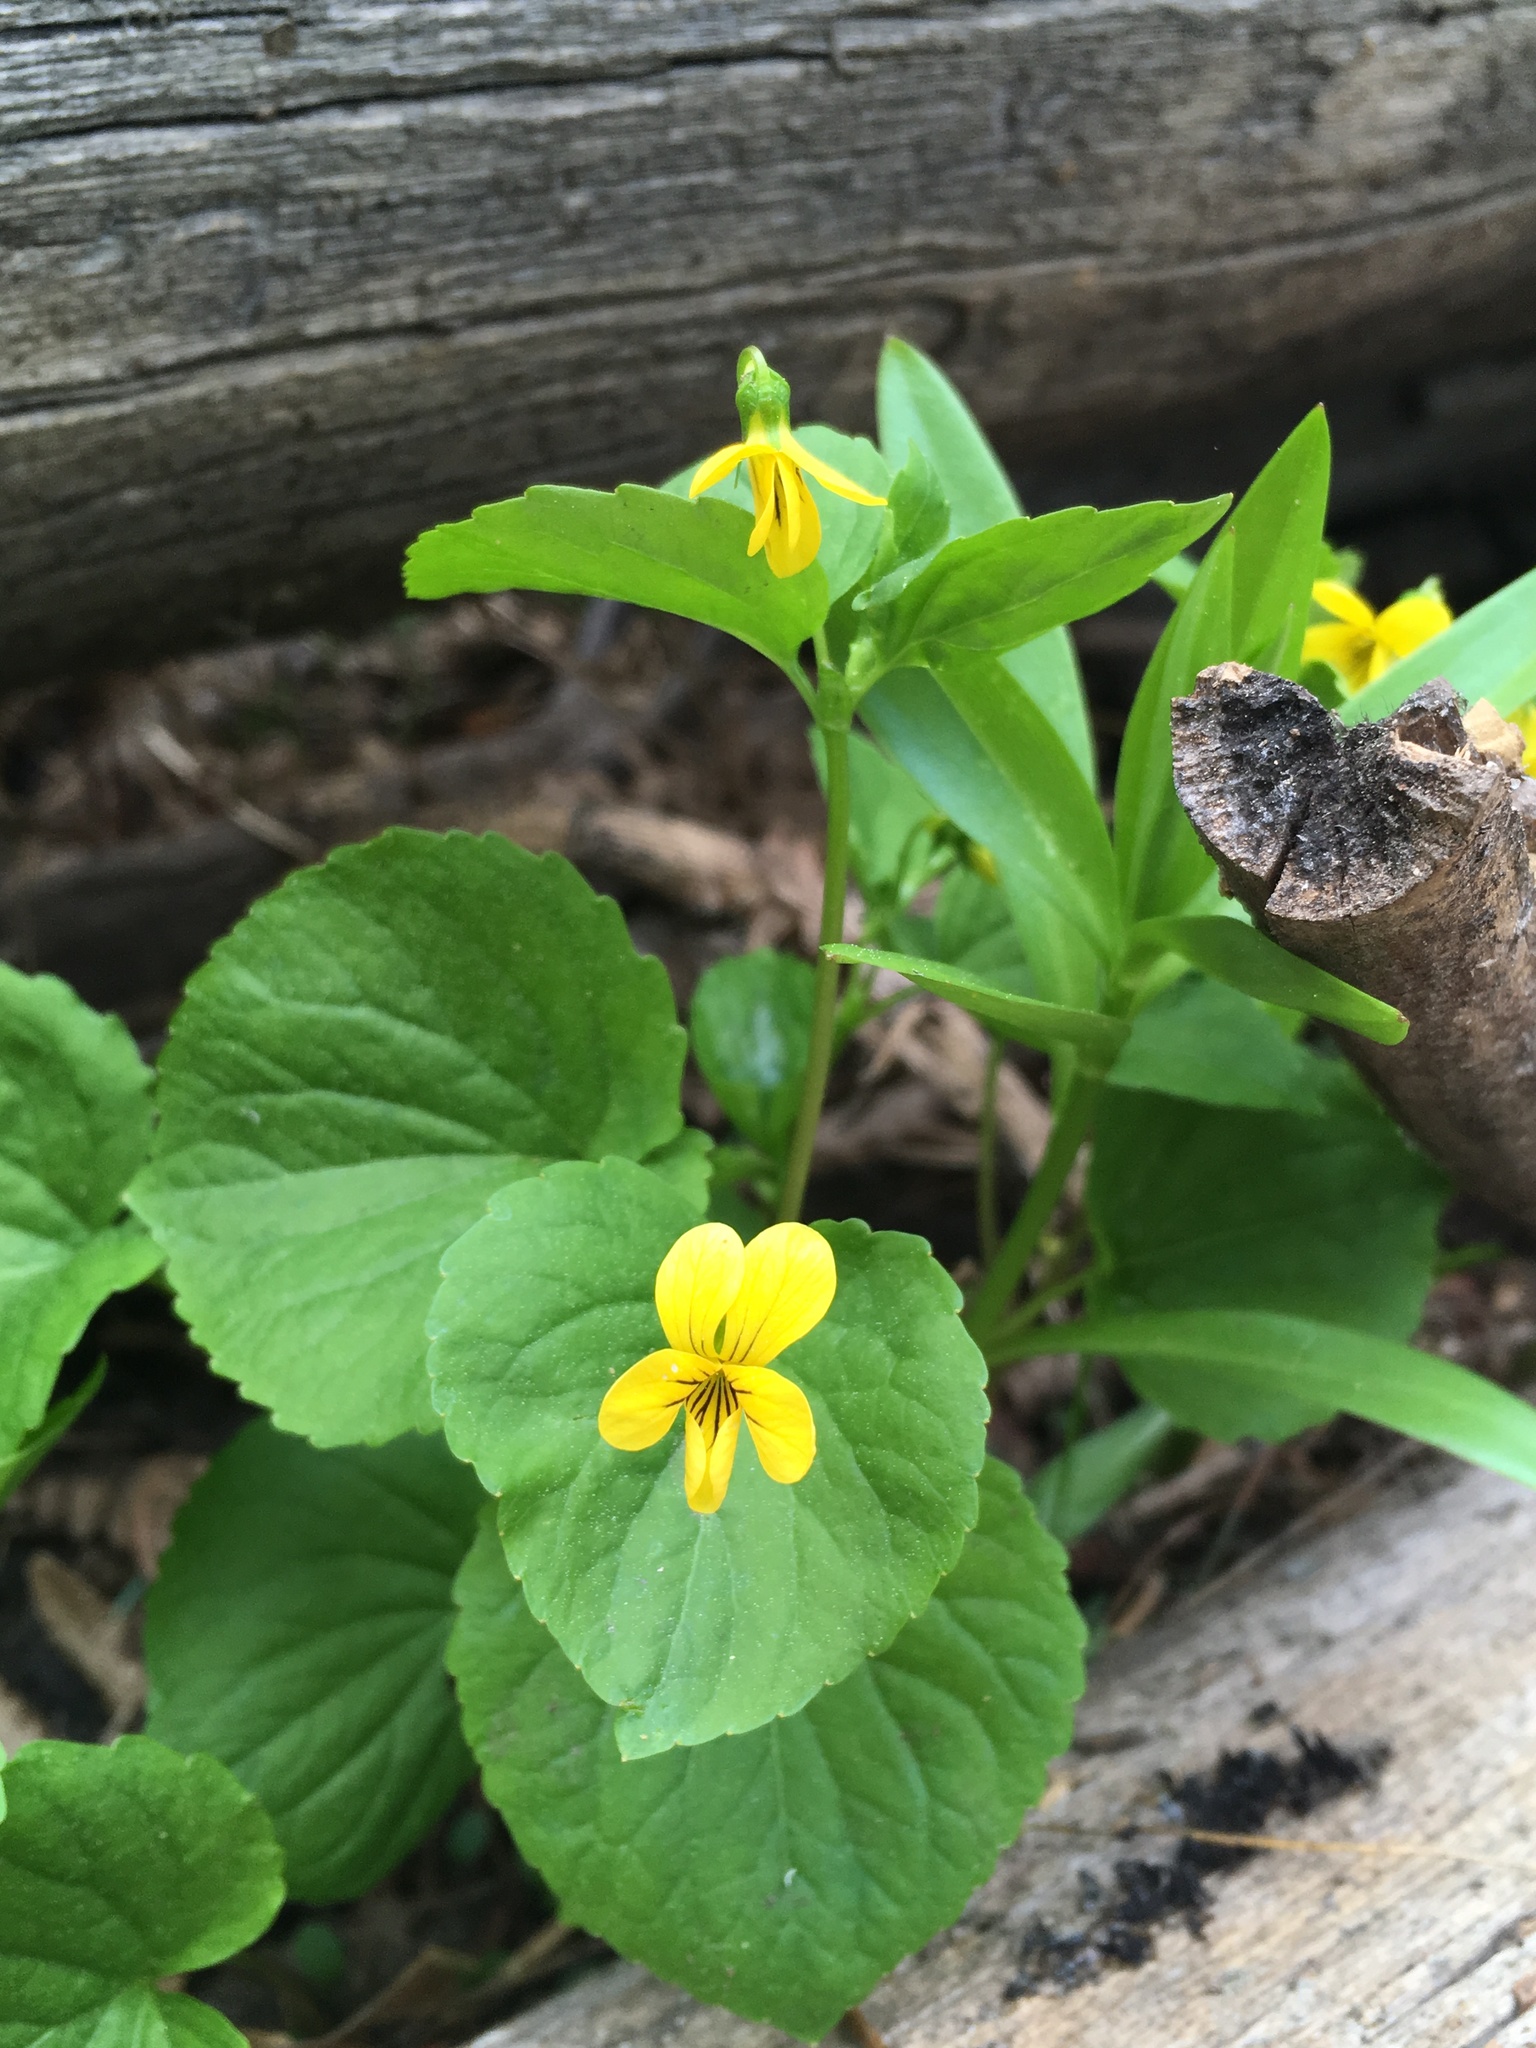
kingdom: Plantae
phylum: Tracheophyta
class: Magnoliopsida
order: Malpighiales
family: Violaceae
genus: Viola
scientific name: Viola glabella
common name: Stream violet
